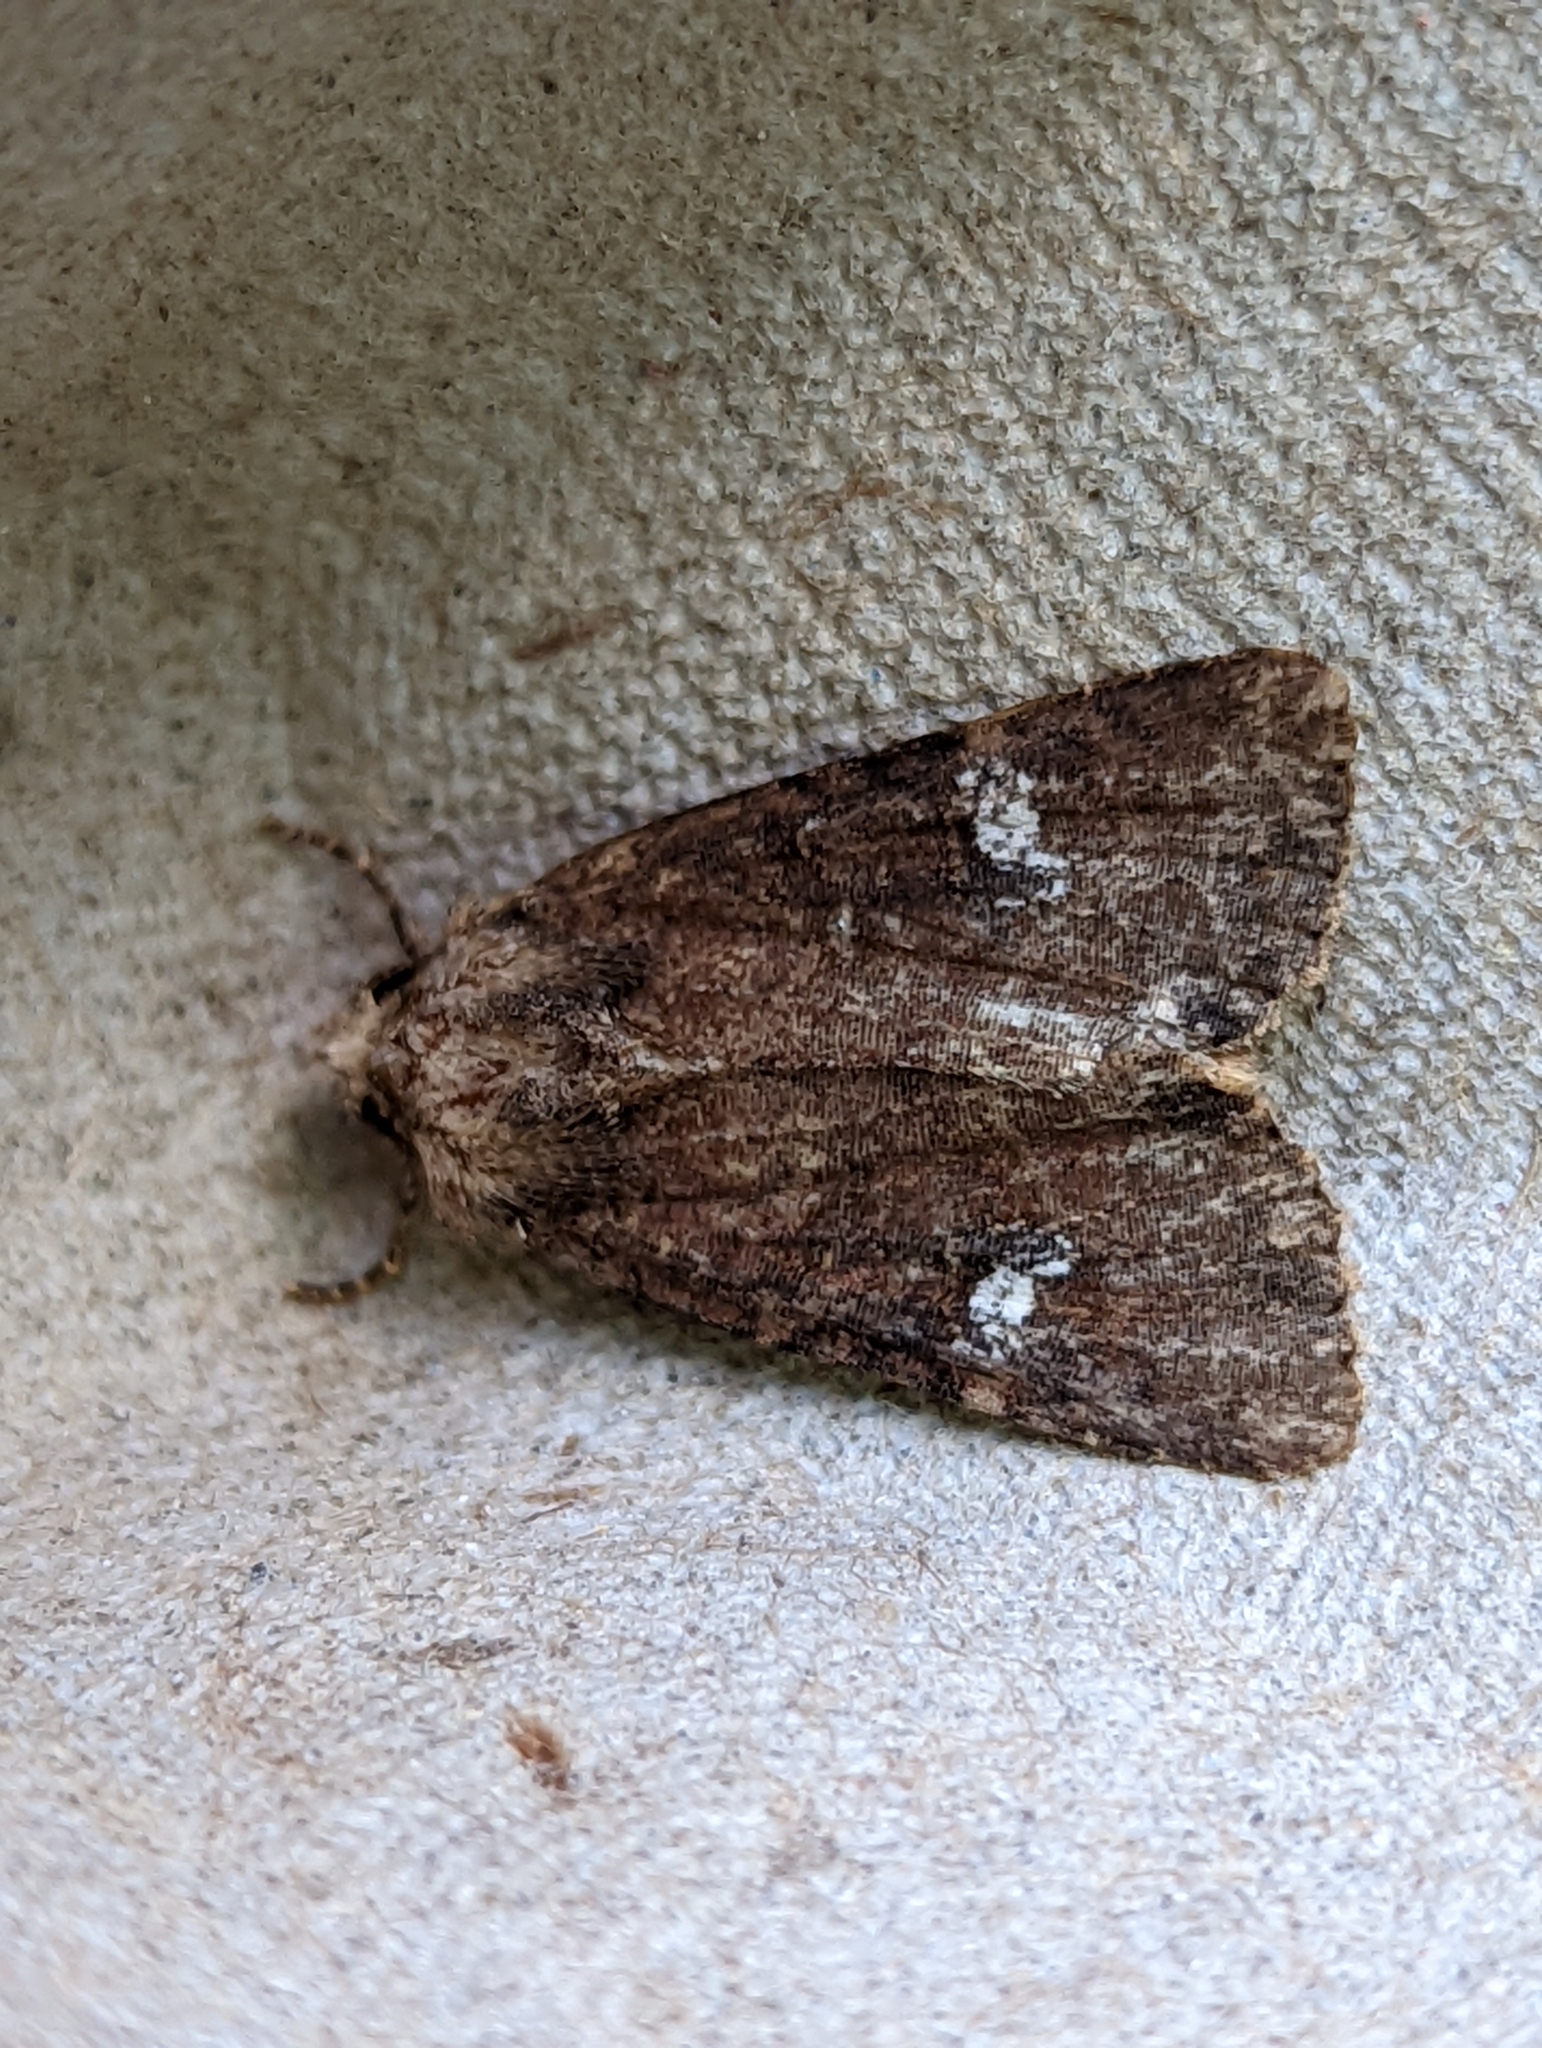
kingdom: Animalia
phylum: Arthropoda
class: Insecta
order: Lepidoptera
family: Noctuidae
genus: Mesapamea
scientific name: Mesapamea
